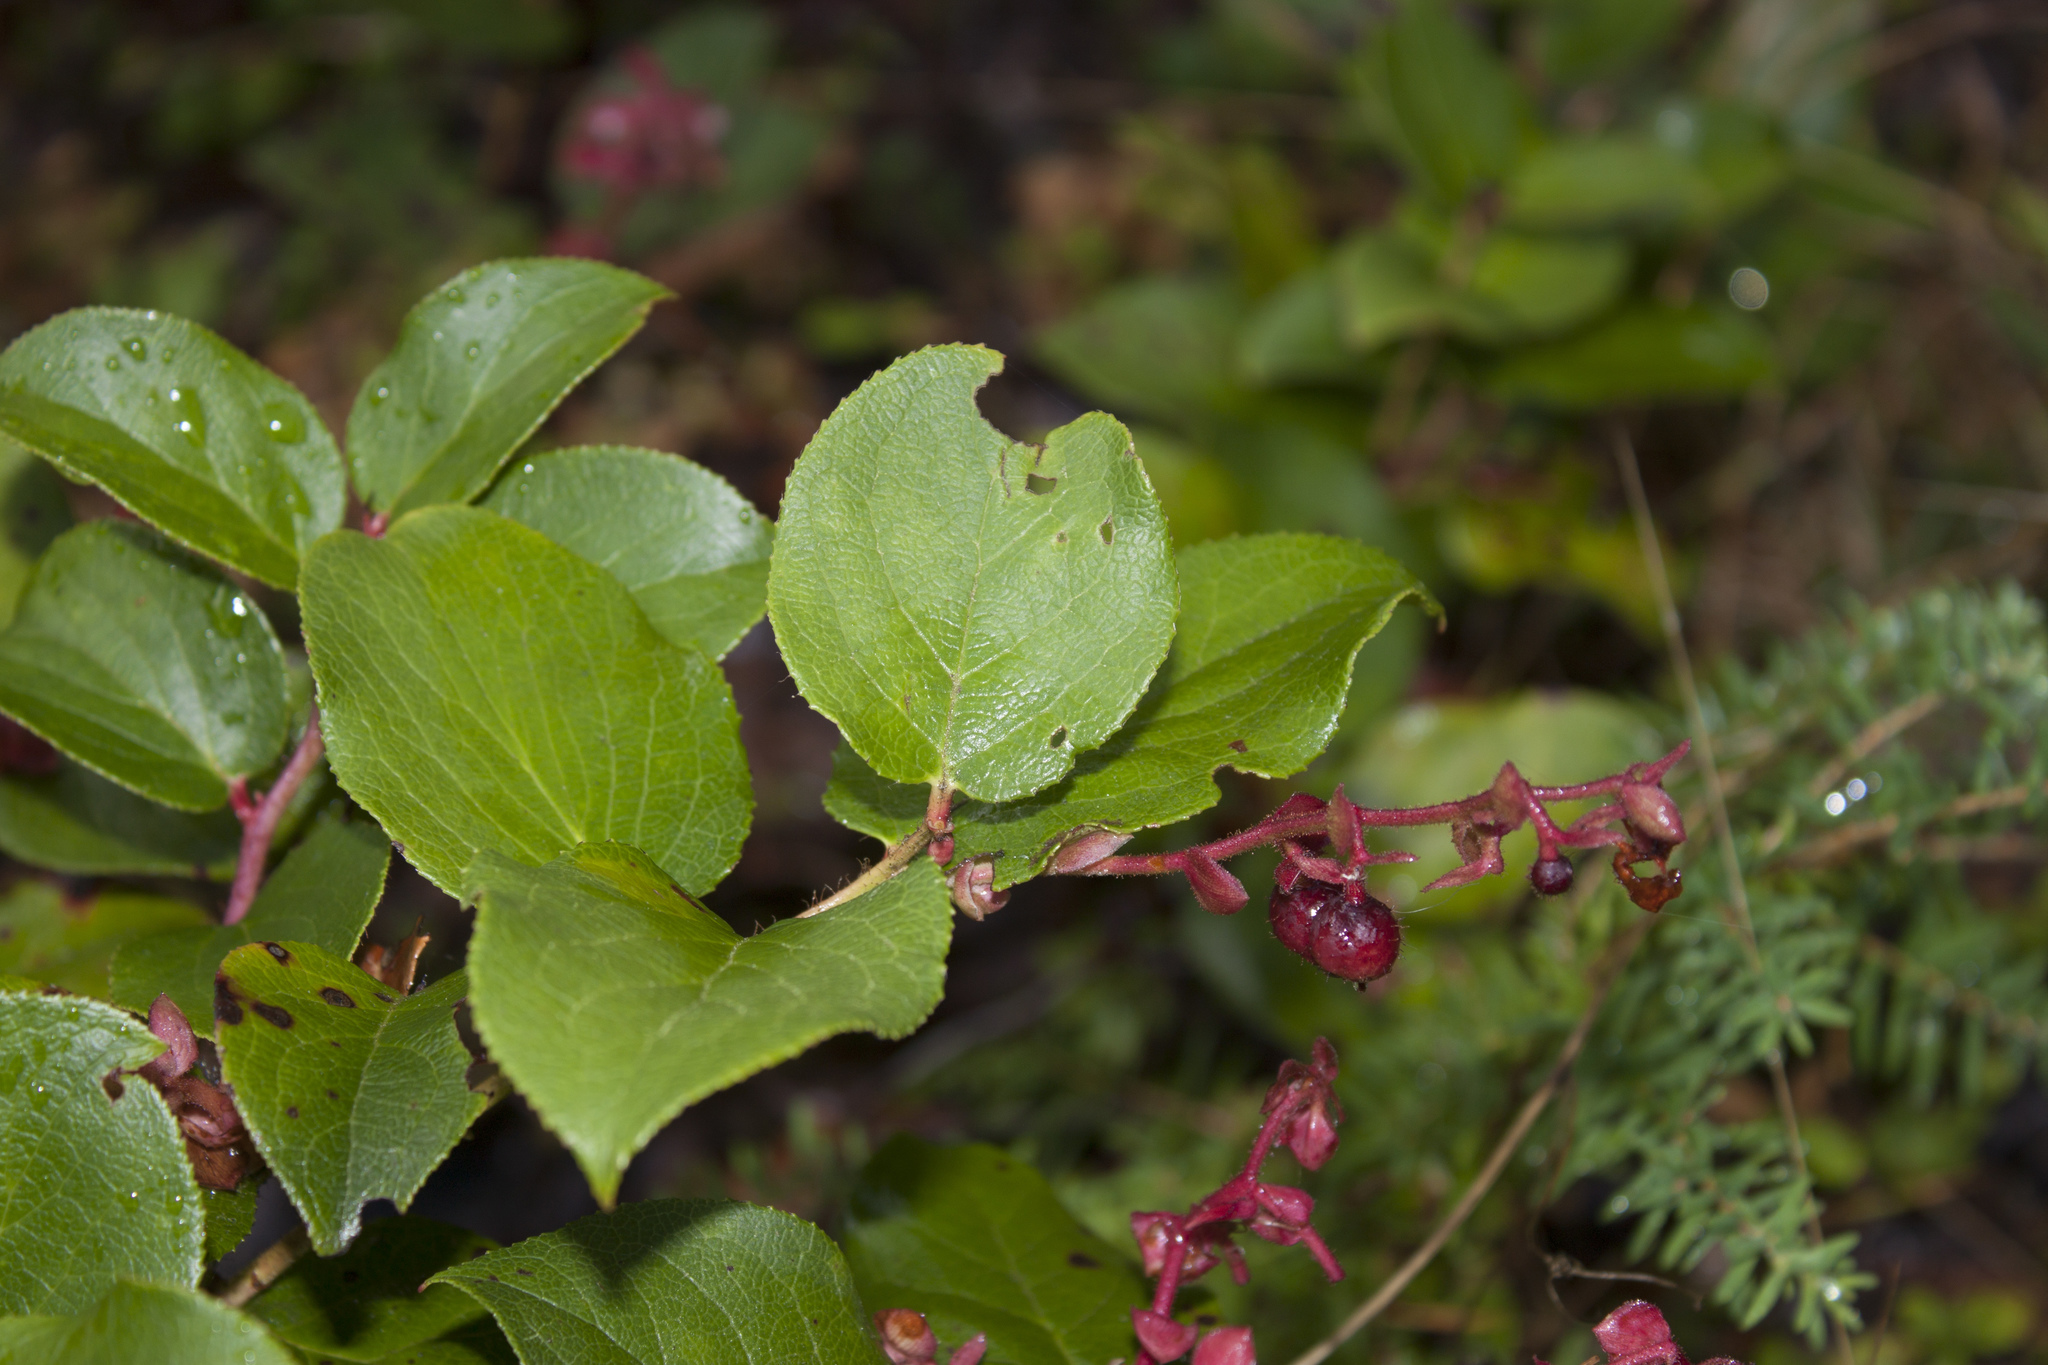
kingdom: Plantae
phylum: Tracheophyta
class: Magnoliopsida
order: Ericales
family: Ericaceae
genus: Gaultheria
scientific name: Gaultheria shallon
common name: Shallon
